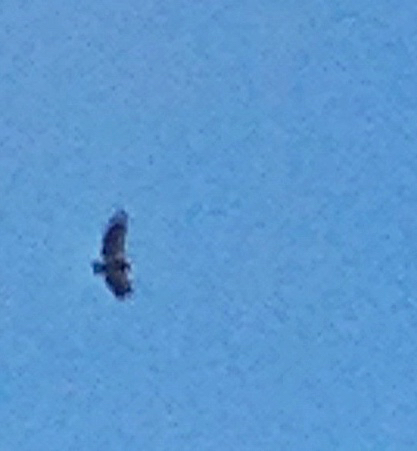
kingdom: Animalia
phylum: Chordata
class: Aves
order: Accipitriformes
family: Cathartidae
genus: Gymnogyps
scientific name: Gymnogyps californianus
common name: California condor
